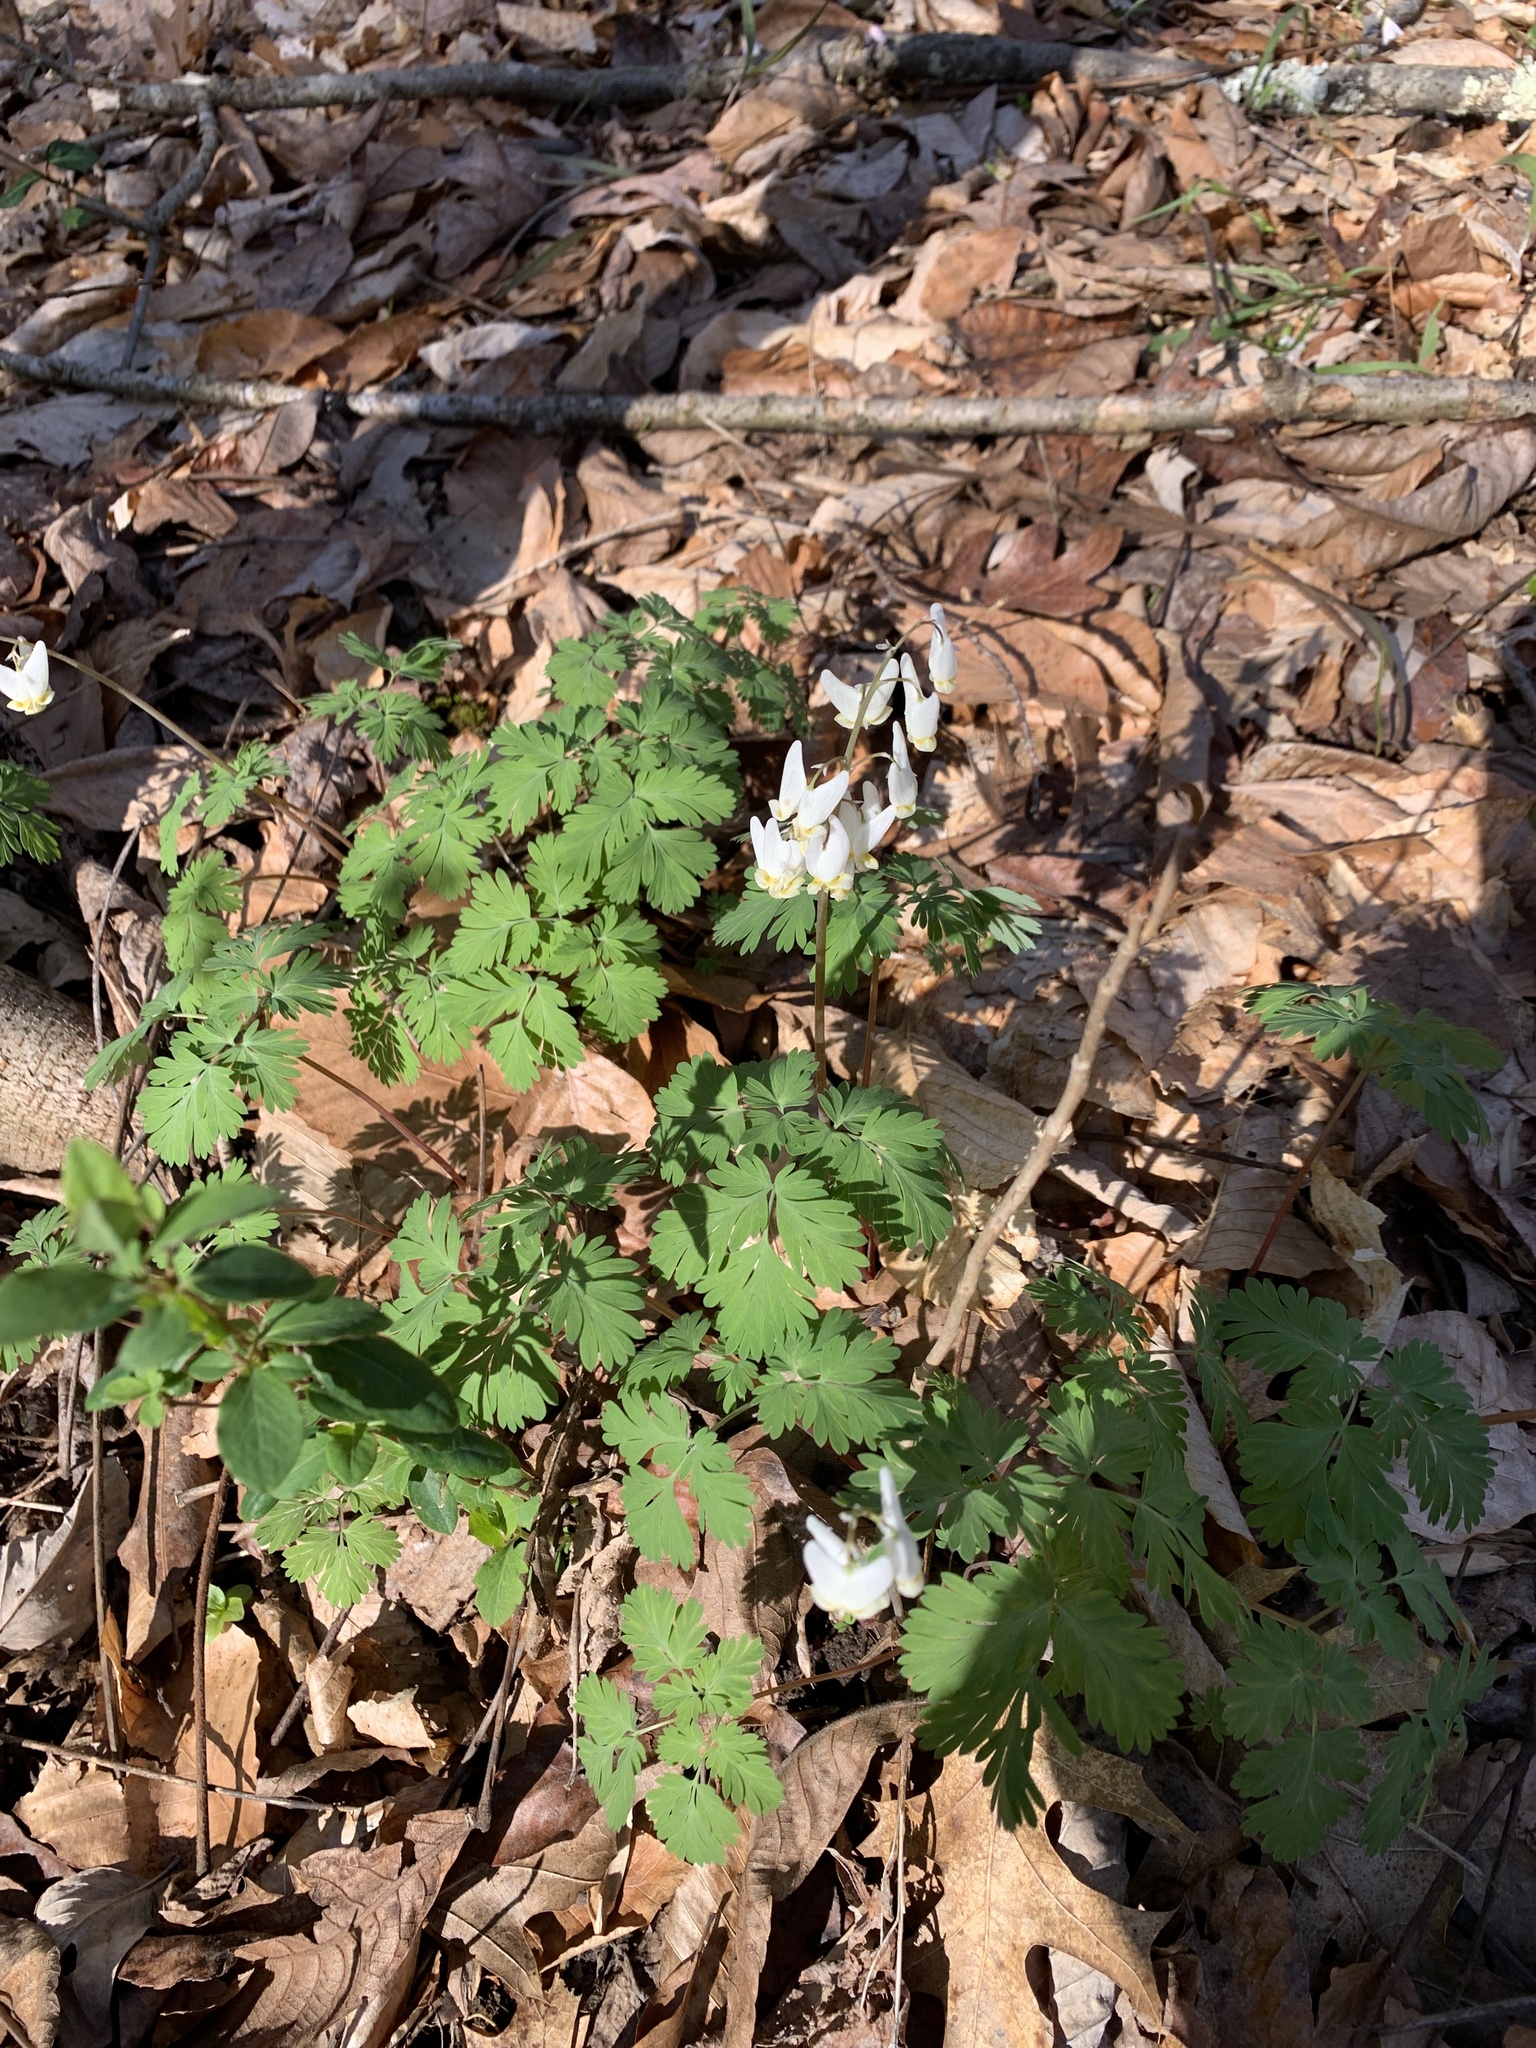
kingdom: Plantae
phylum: Tracheophyta
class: Magnoliopsida
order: Ranunculales
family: Papaveraceae
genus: Dicentra
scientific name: Dicentra cucullaria
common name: Dutchman's breeches
